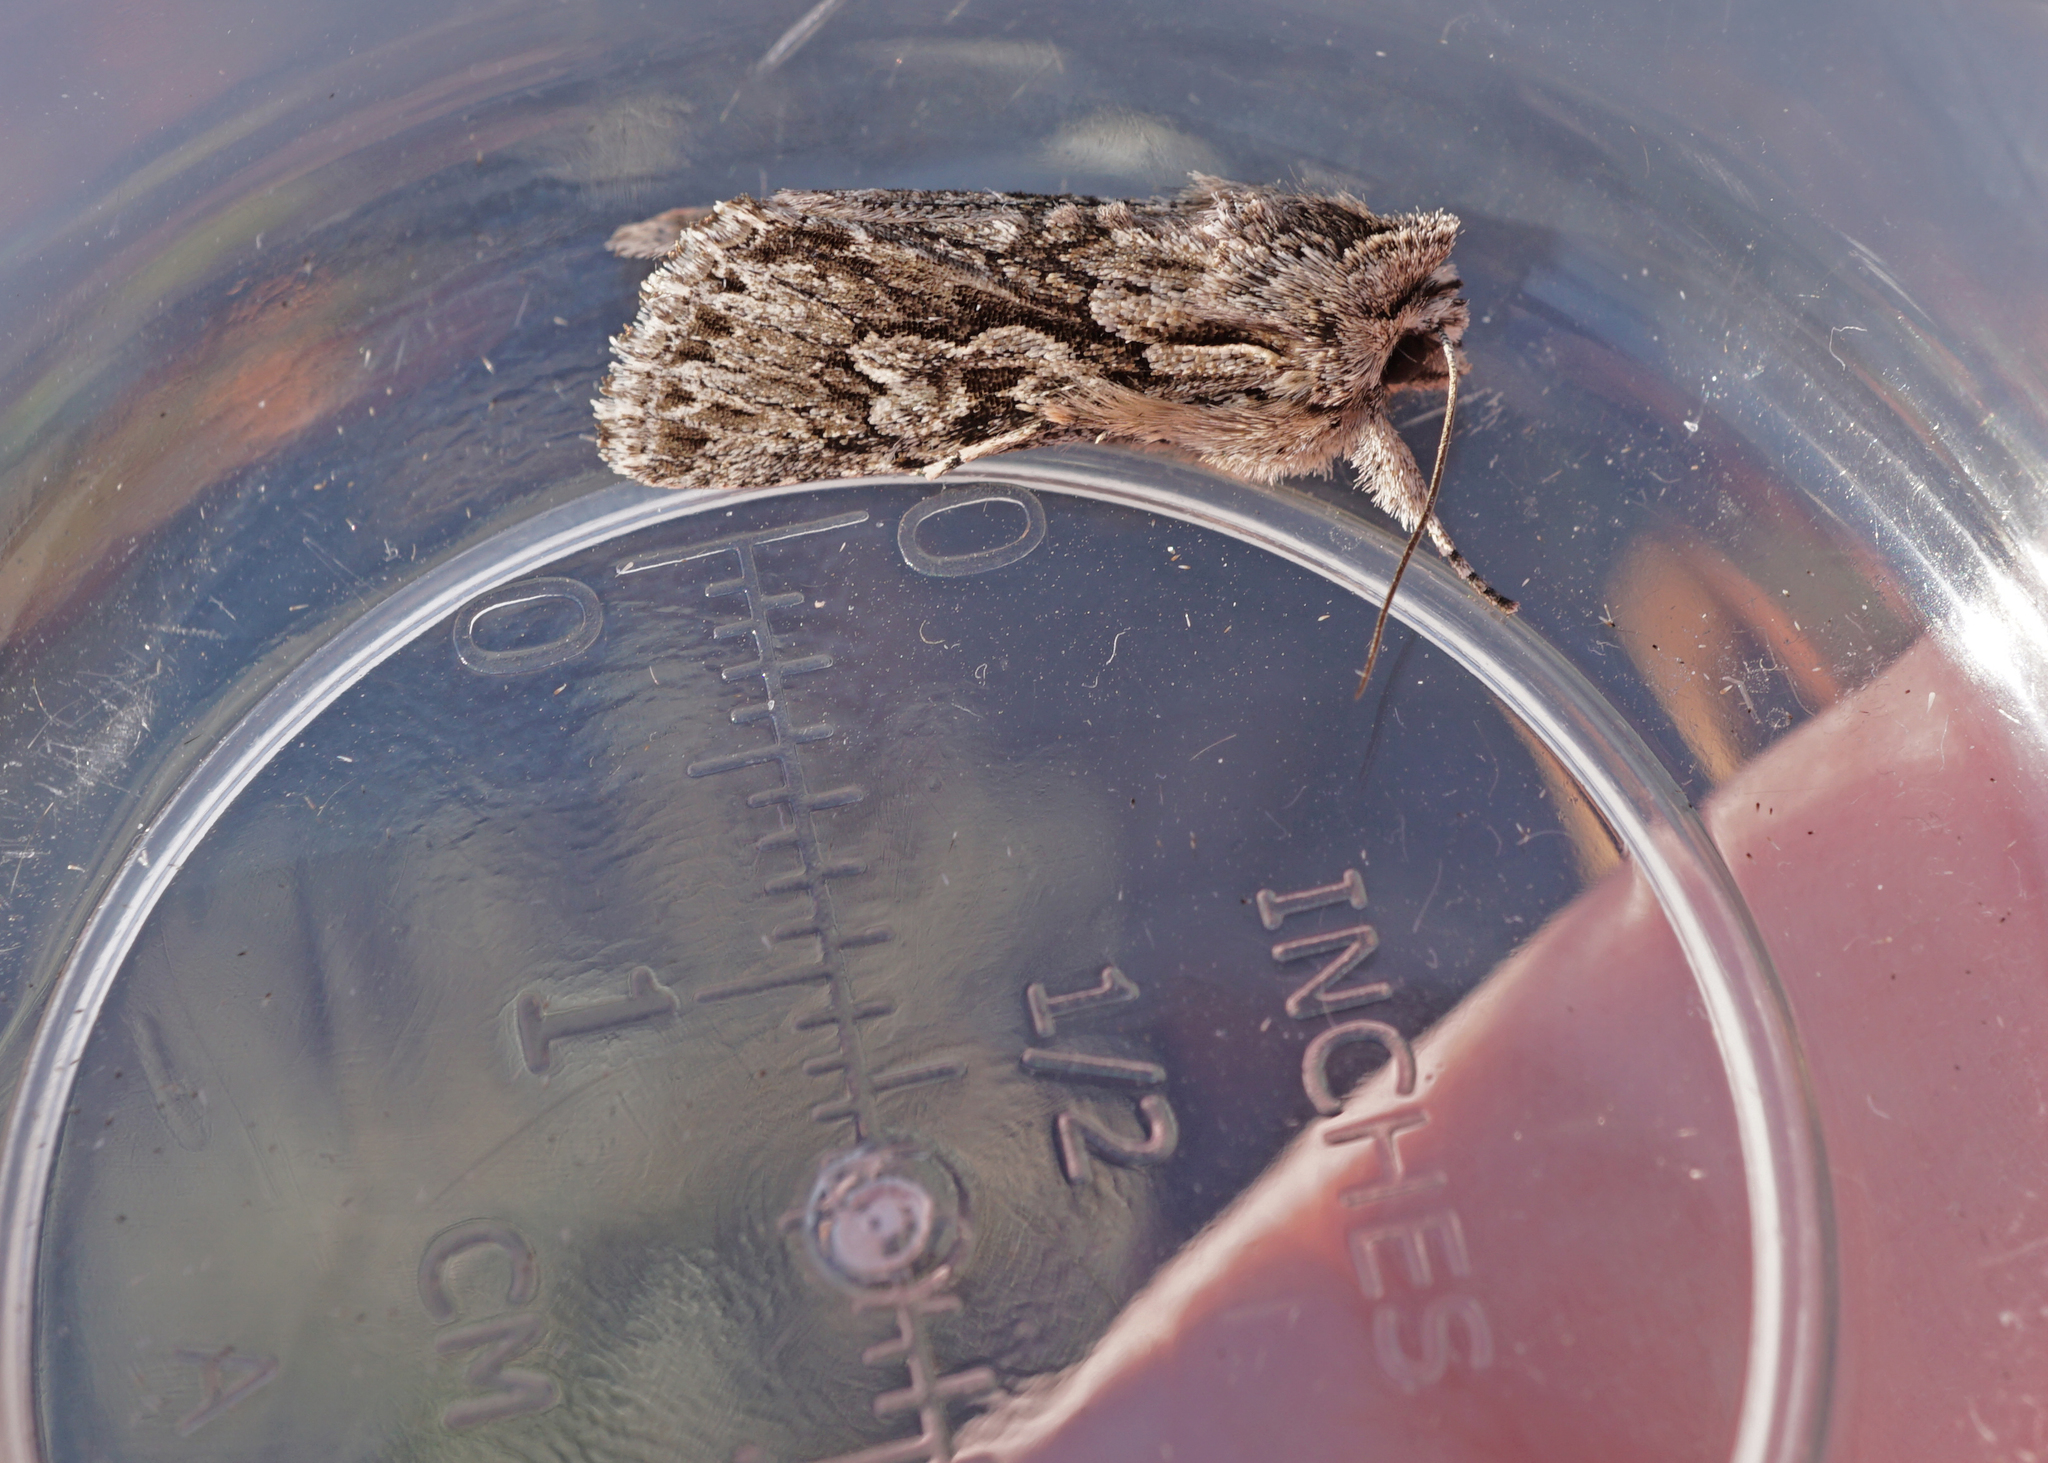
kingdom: Animalia
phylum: Arthropoda
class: Insecta
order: Lepidoptera
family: Noctuidae
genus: Xylocampa
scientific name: Xylocampa areola
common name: Early grey
